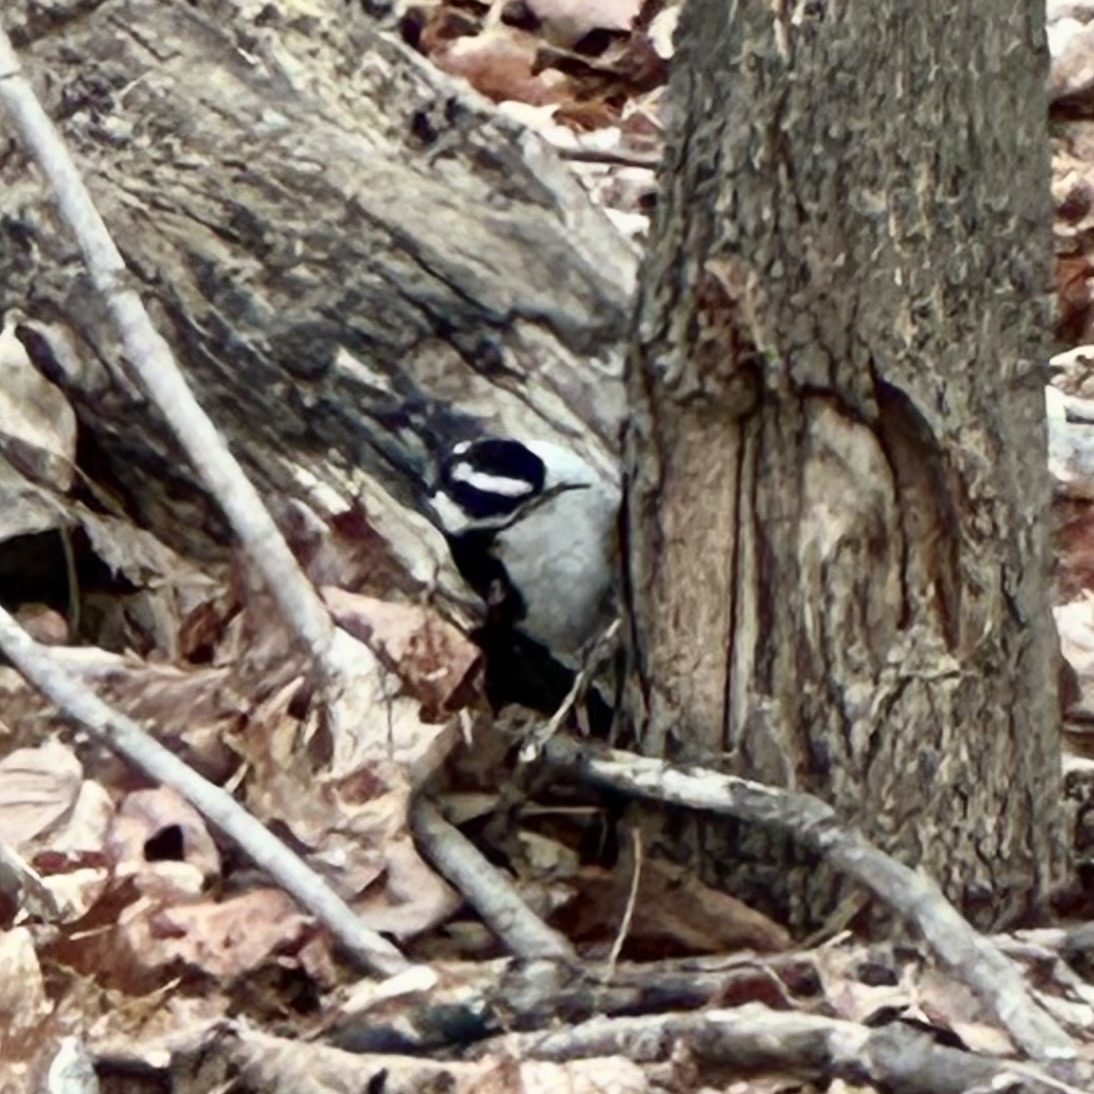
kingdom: Animalia
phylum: Chordata
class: Aves
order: Piciformes
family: Picidae
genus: Dryobates
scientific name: Dryobates pubescens
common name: Downy woodpecker
